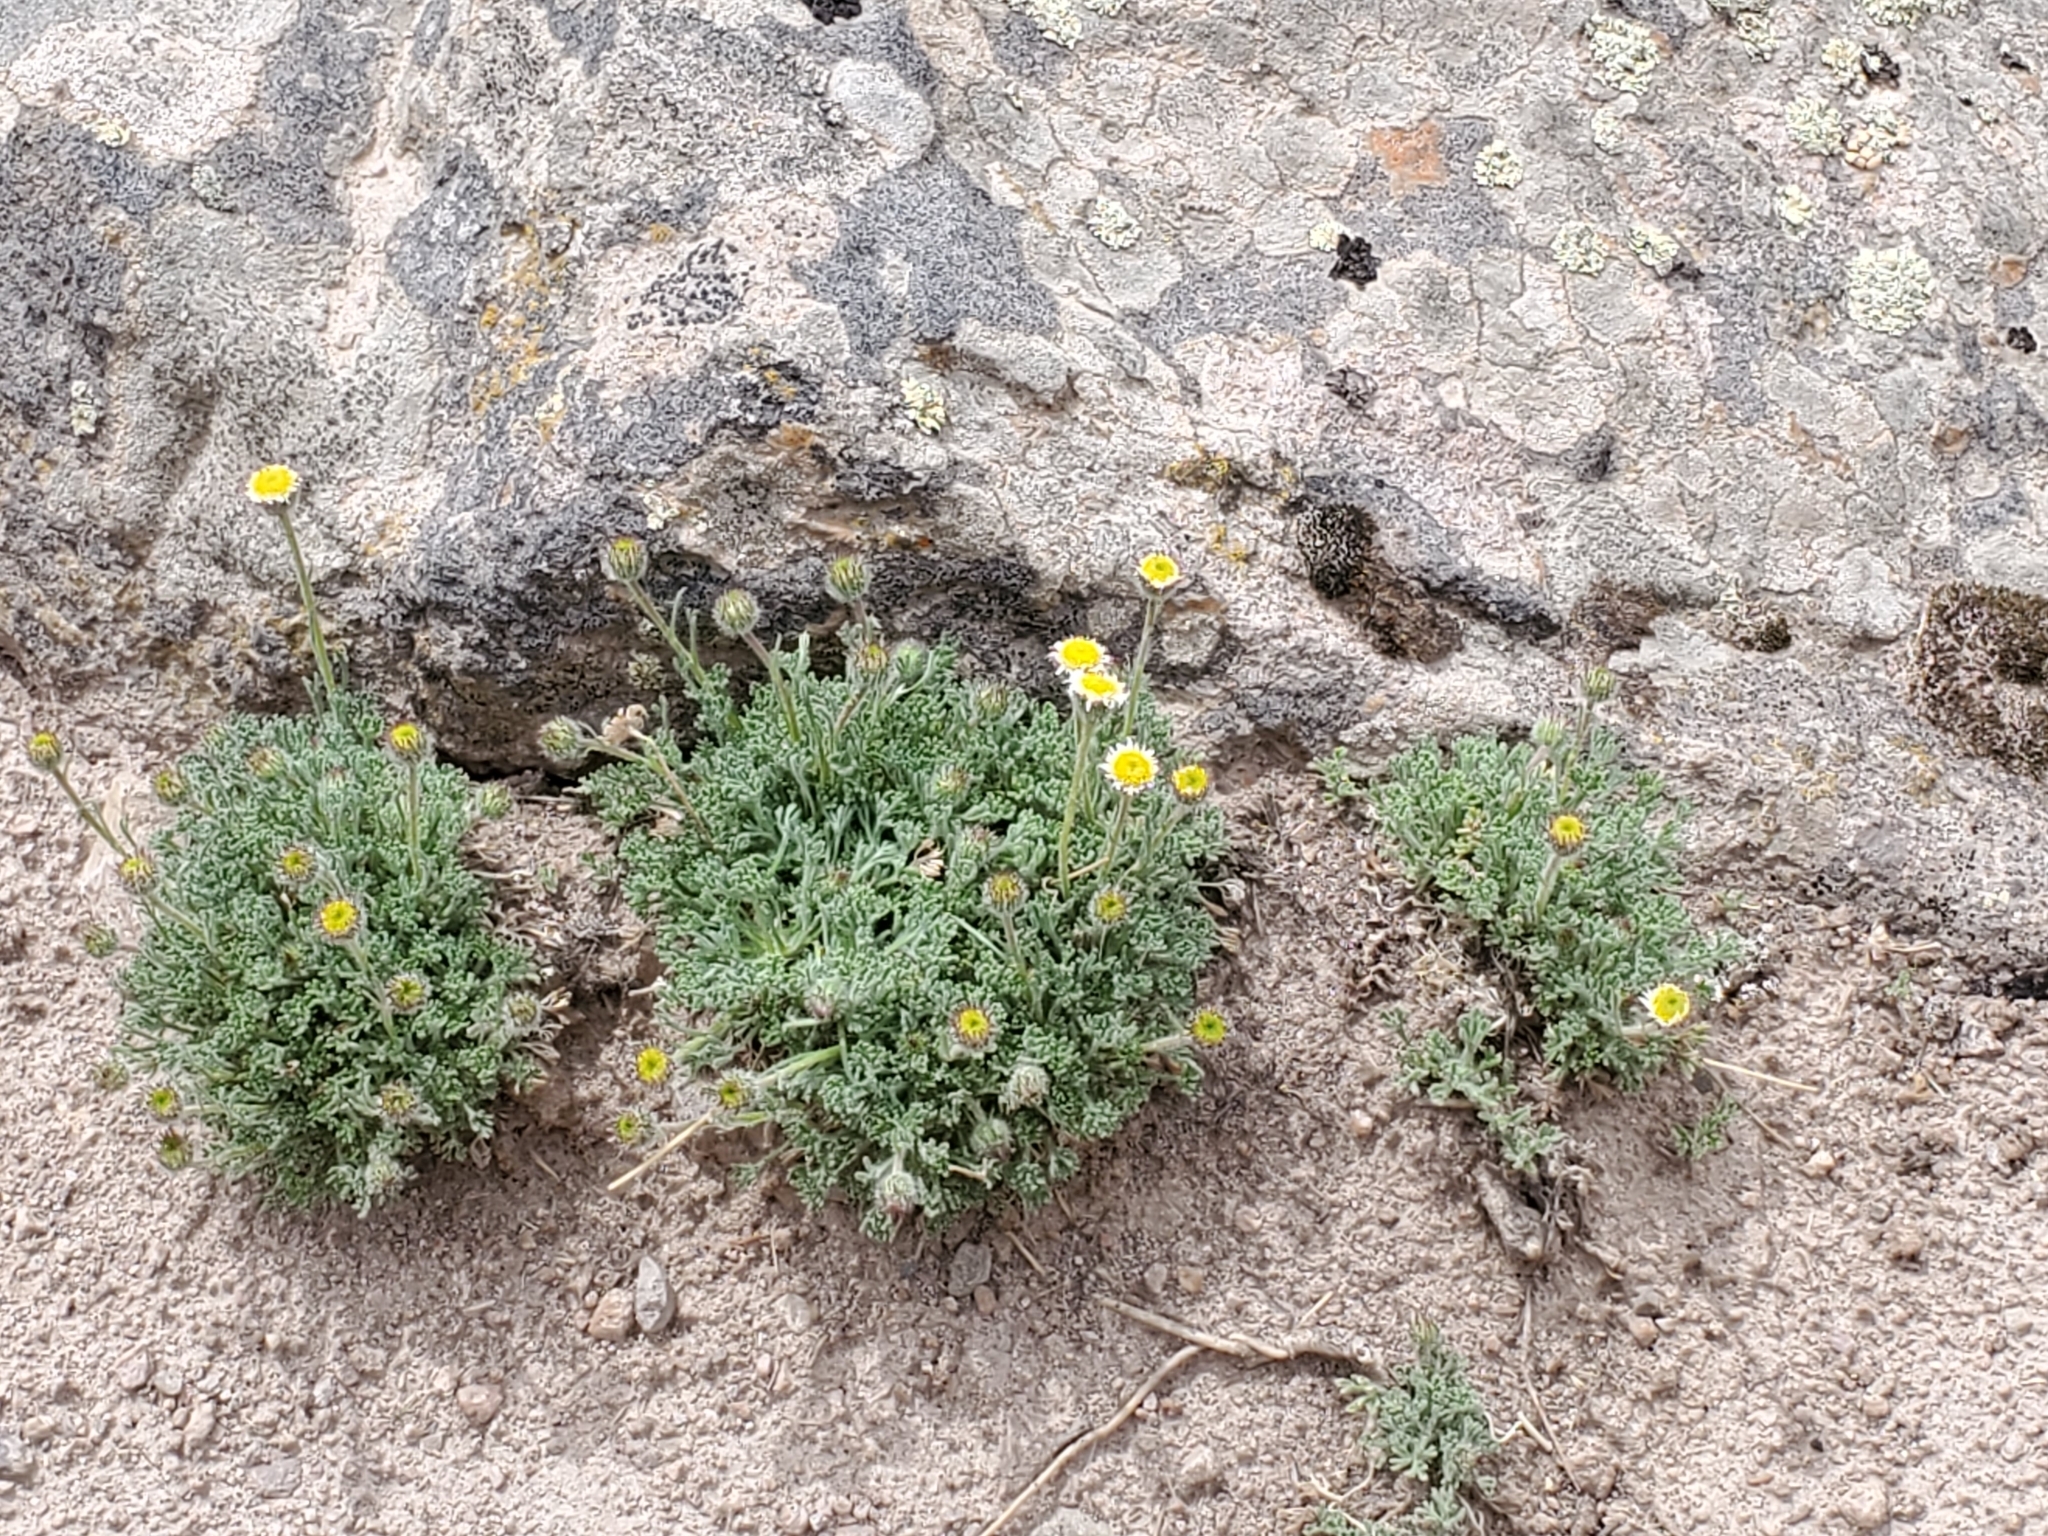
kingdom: Plantae
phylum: Tracheophyta
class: Magnoliopsida
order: Asterales
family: Asteraceae
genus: Erigeron
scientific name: Erigeron compositus
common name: Dwarf mountain fleabane
